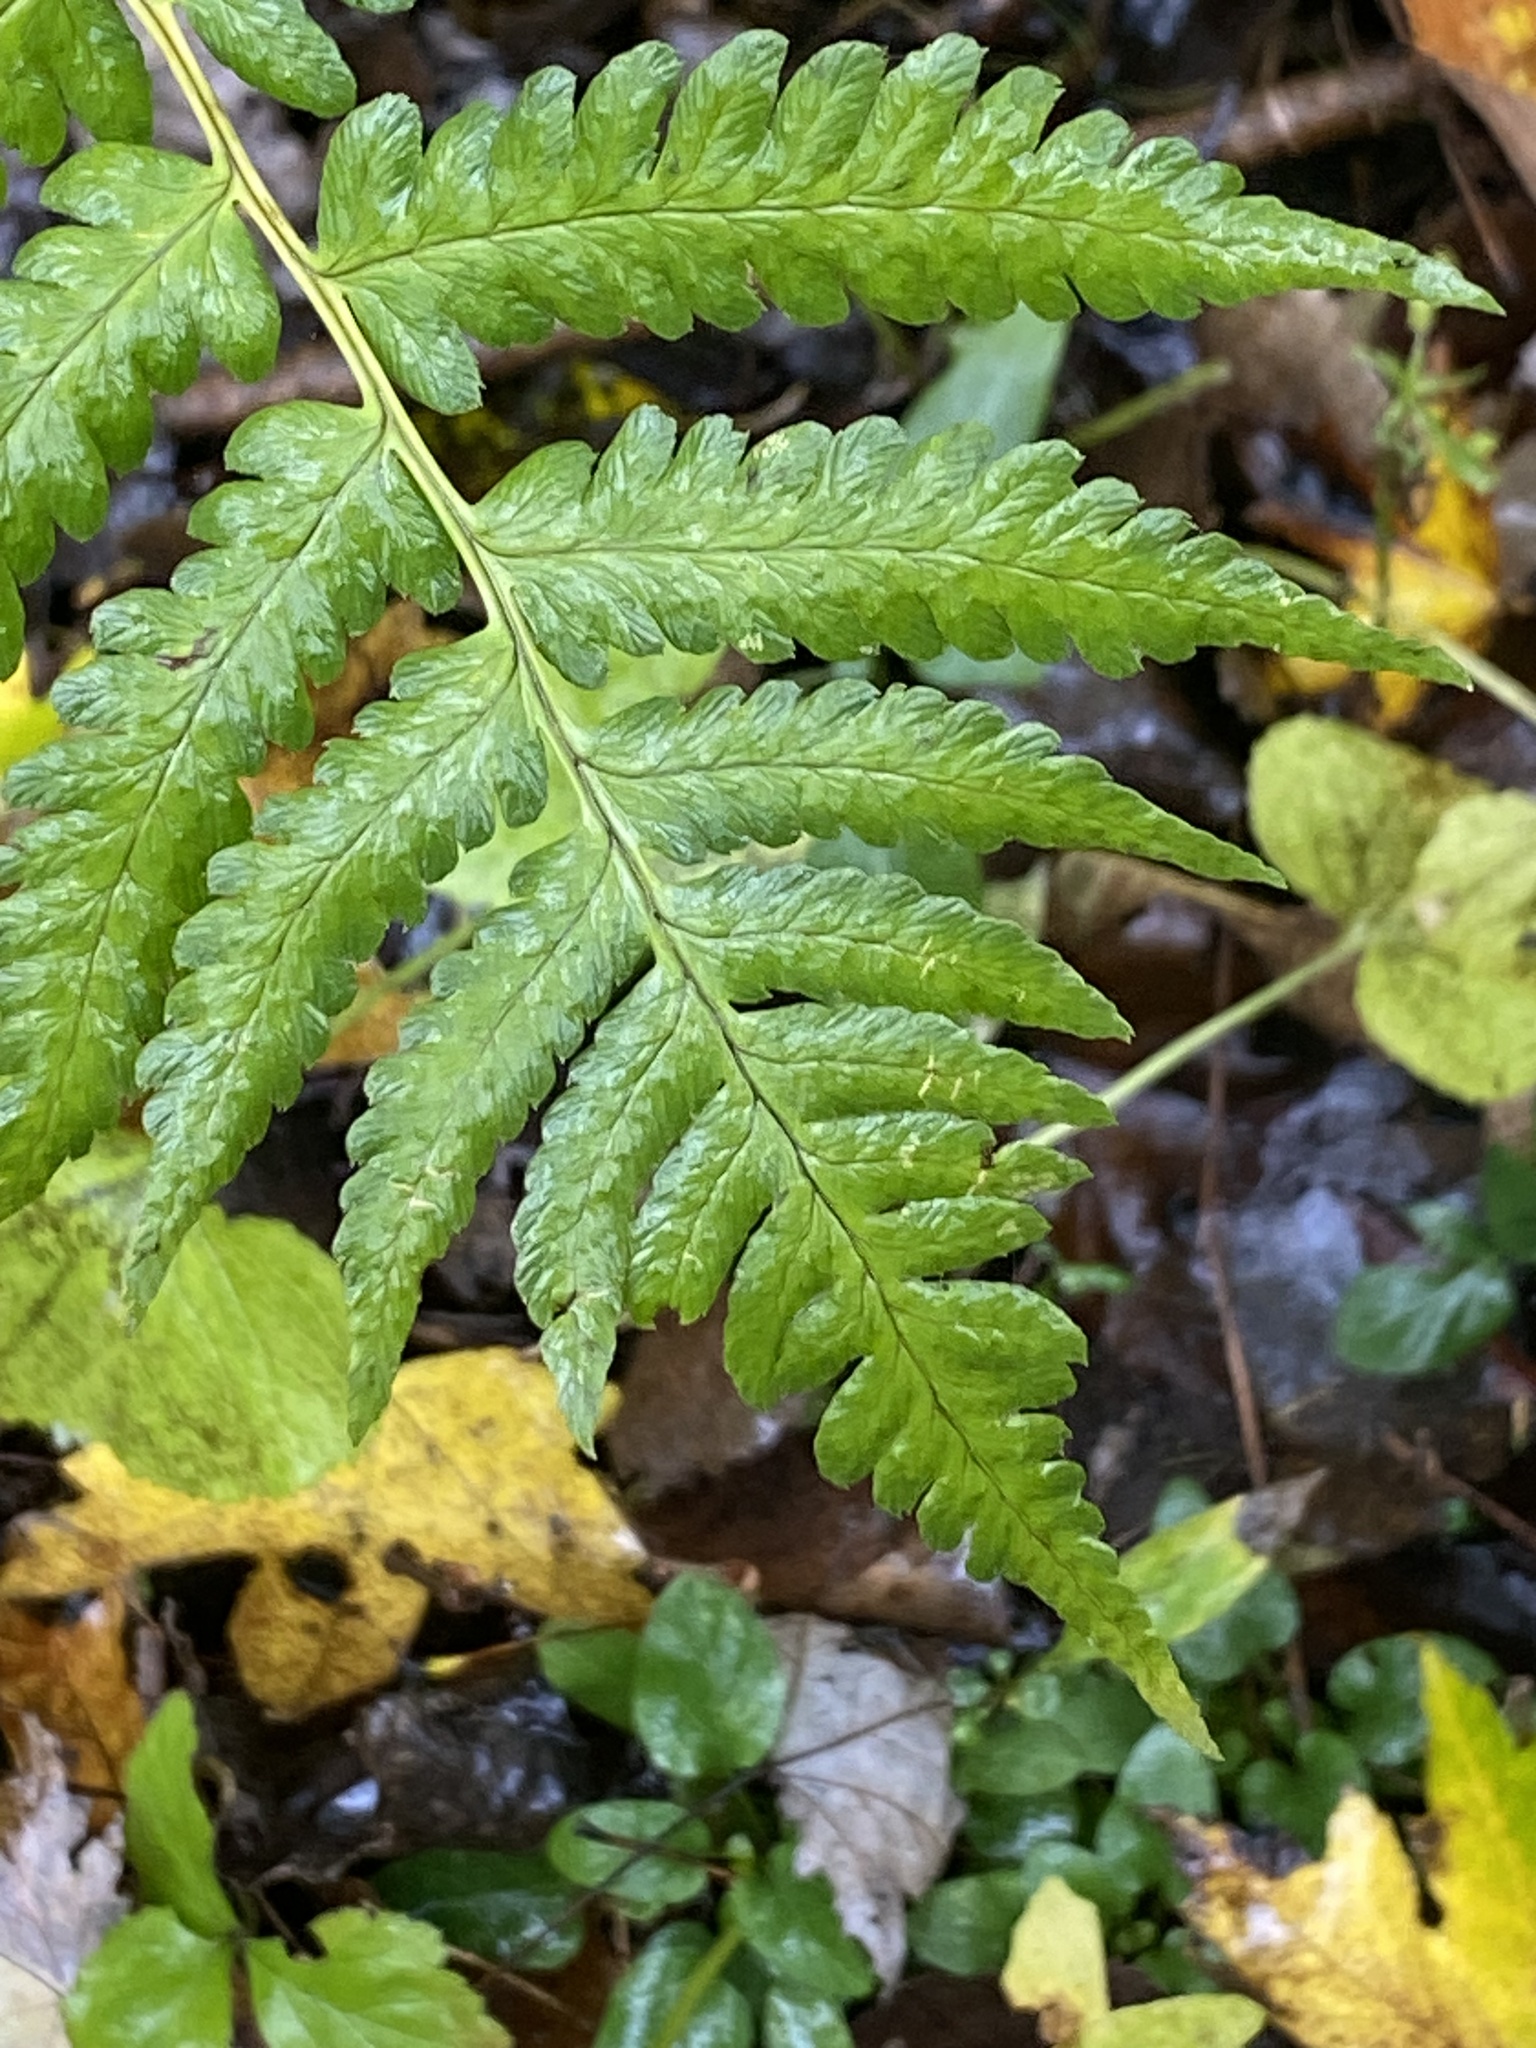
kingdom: Plantae
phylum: Tracheophyta
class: Polypodiopsida
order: Polypodiales
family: Dryopteridaceae
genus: Dryopteris
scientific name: Dryopteris clintoniana
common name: Clinton's wood fern
